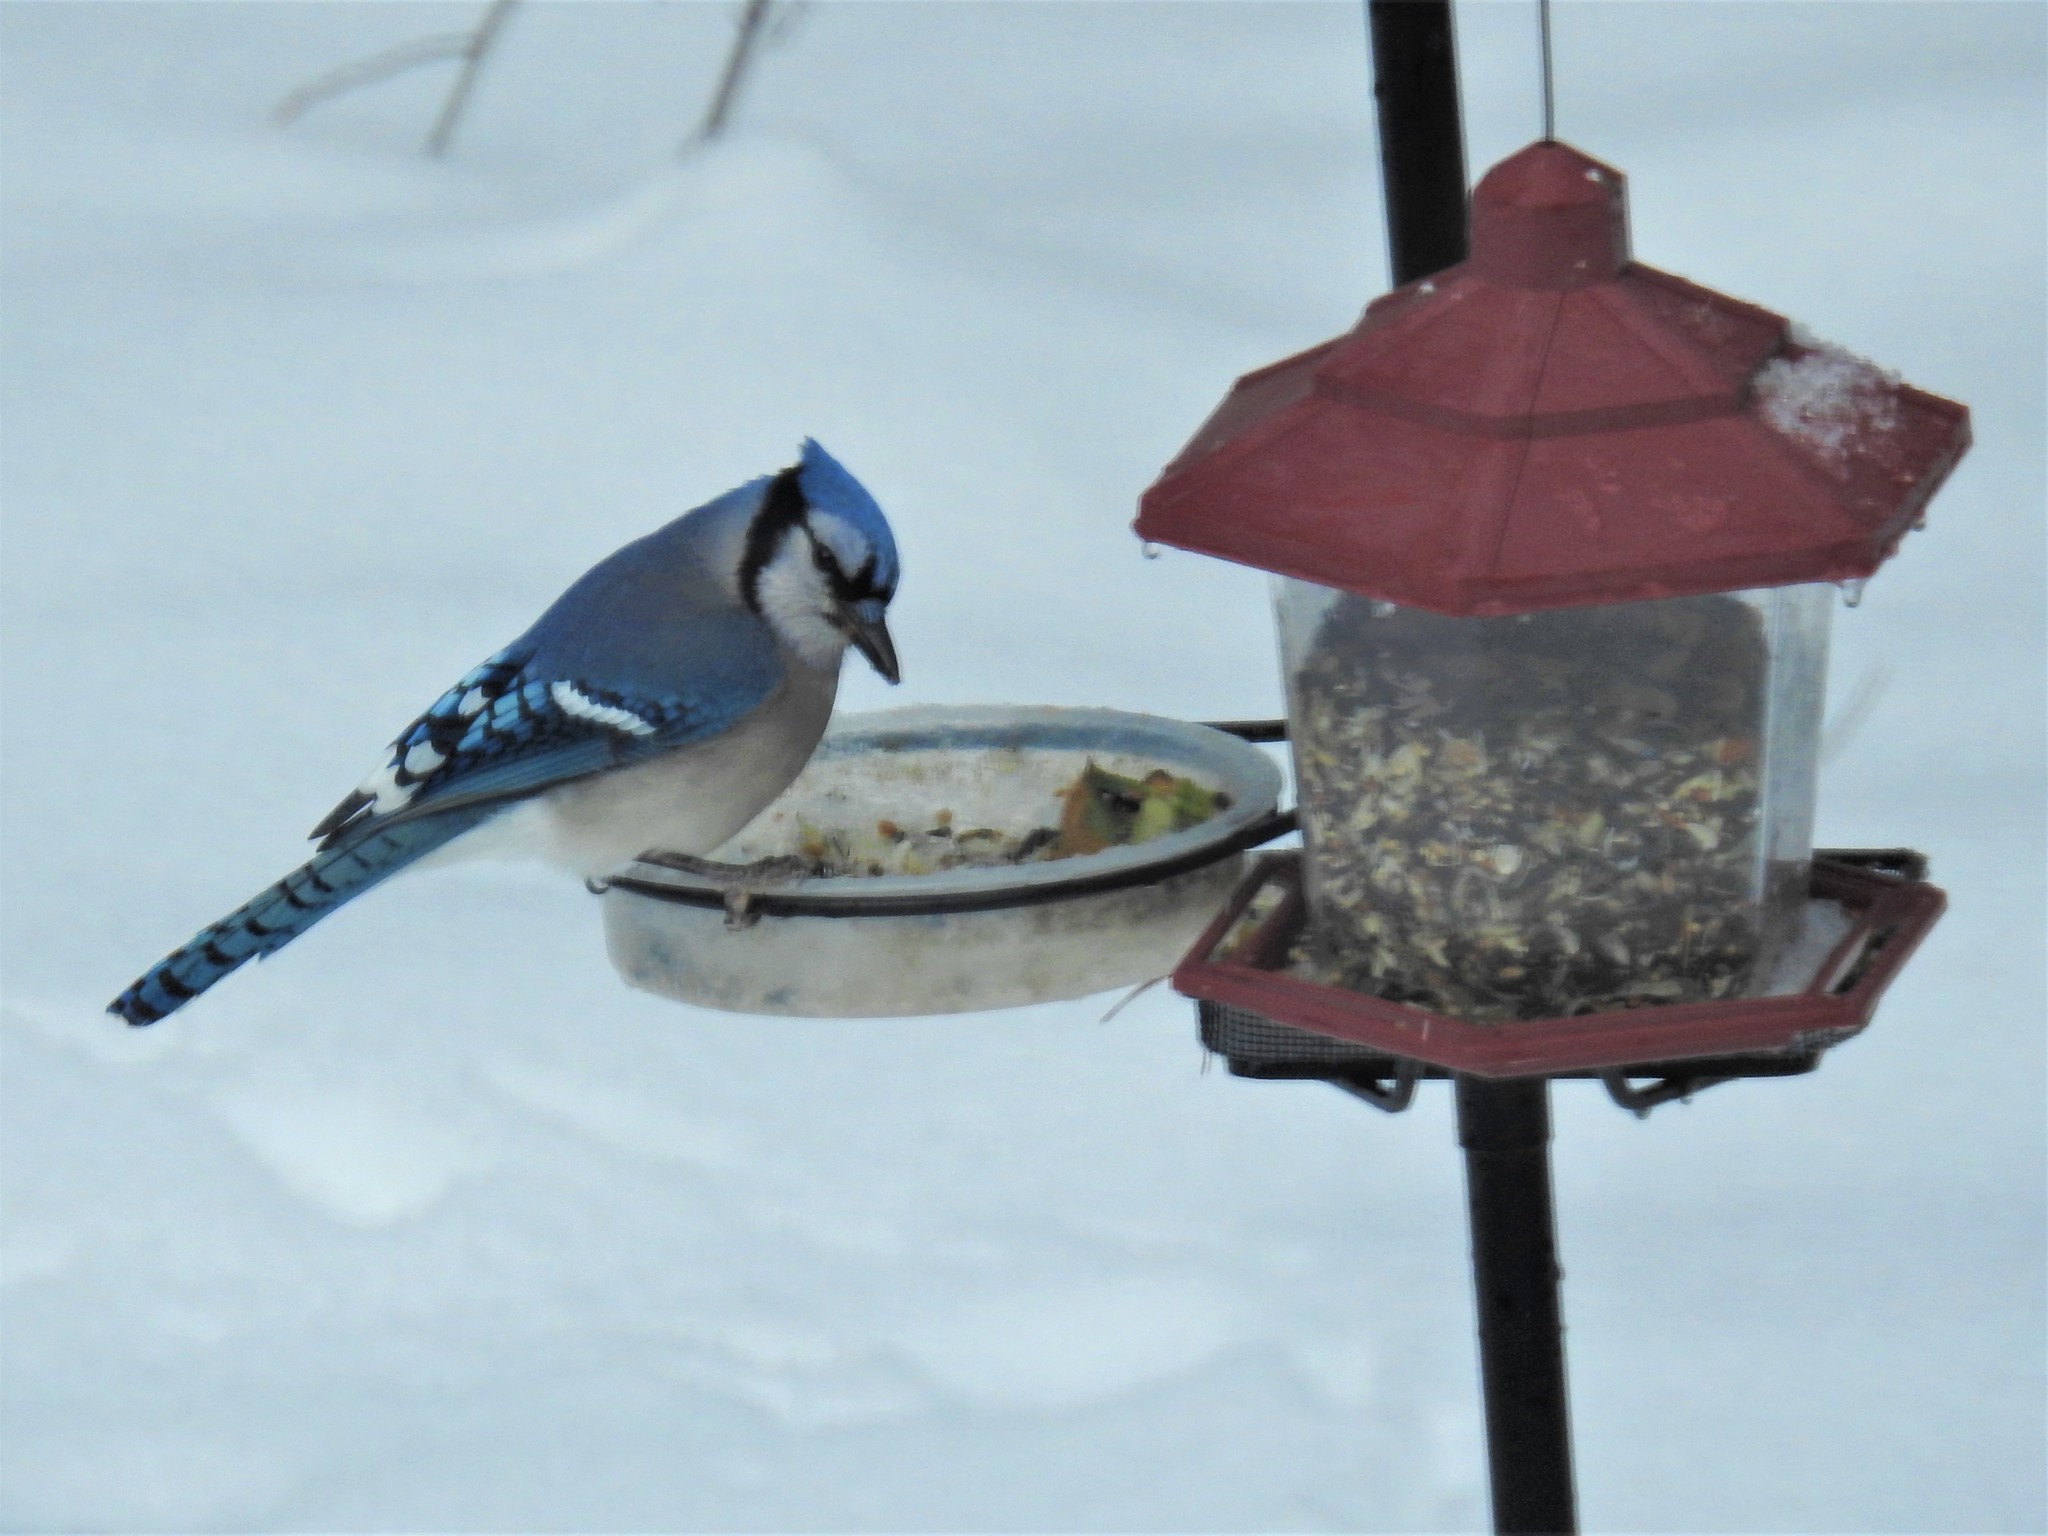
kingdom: Animalia
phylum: Chordata
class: Aves
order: Passeriformes
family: Corvidae
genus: Cyanocitta
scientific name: Cyanocitta cristata
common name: Blue jay
